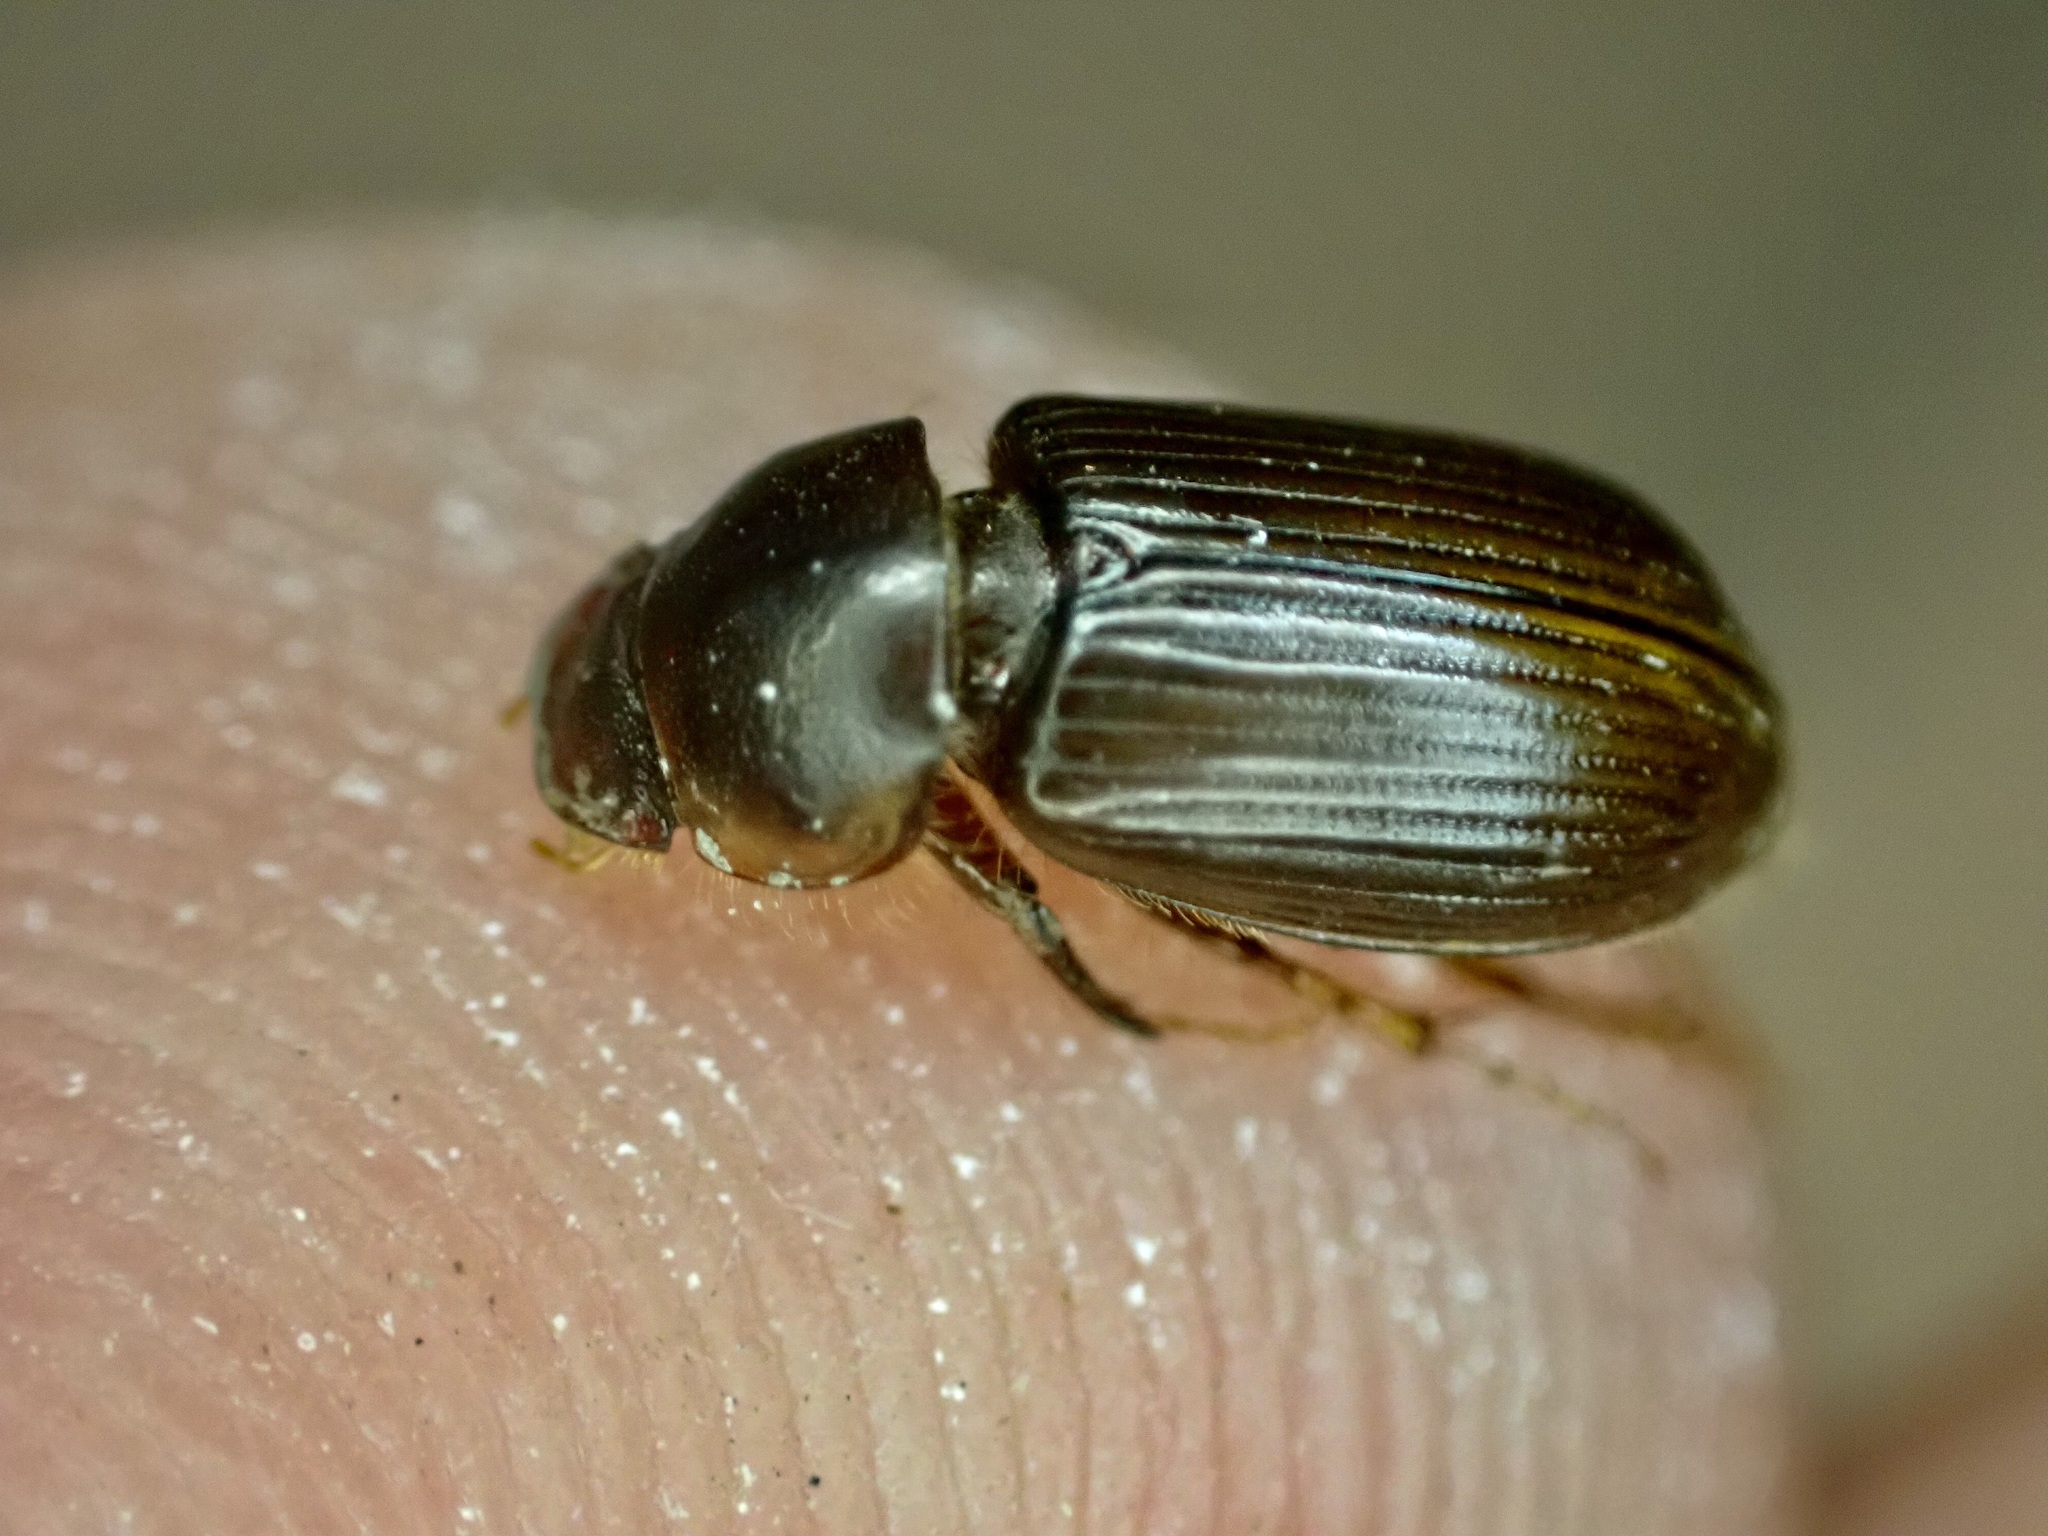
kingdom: Animalia
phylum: Arthropoda
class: Insecta
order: Coleoptera
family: Scarabaeidae
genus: Acrossidius
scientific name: Acrossidius tasmaniae
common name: Black-headed pasture cockchafer
